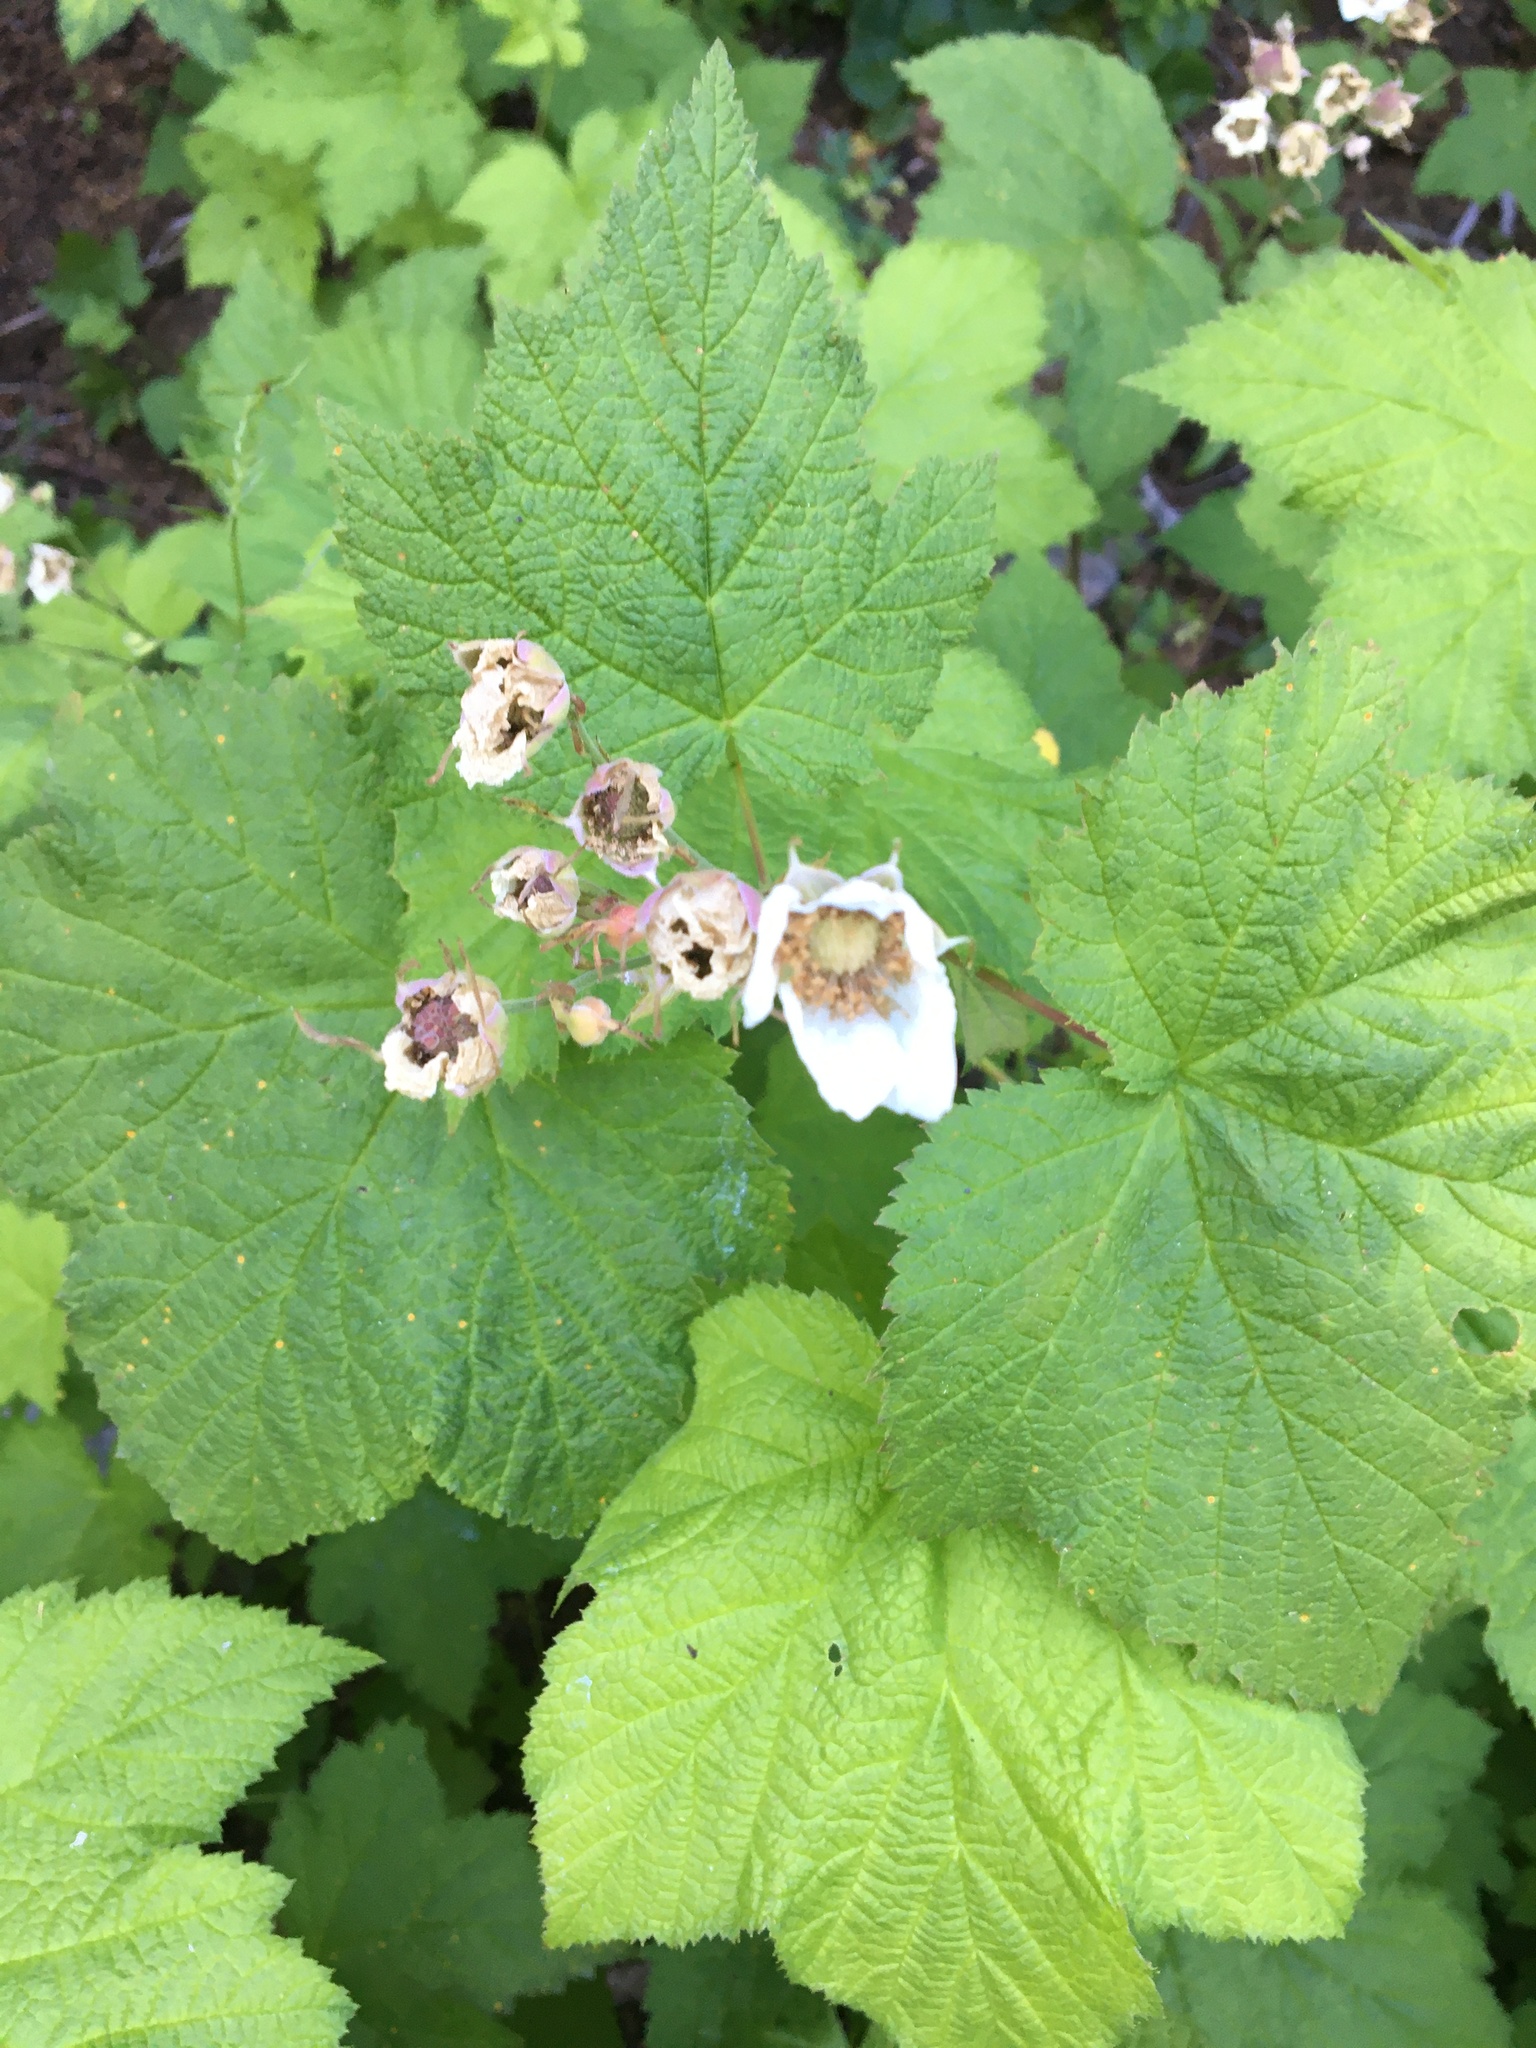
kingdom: Plantae
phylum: Tracheophyta
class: Magnoliopsida
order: Rosales
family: Rosaceae
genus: Rubus
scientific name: Rubus parviflorus
